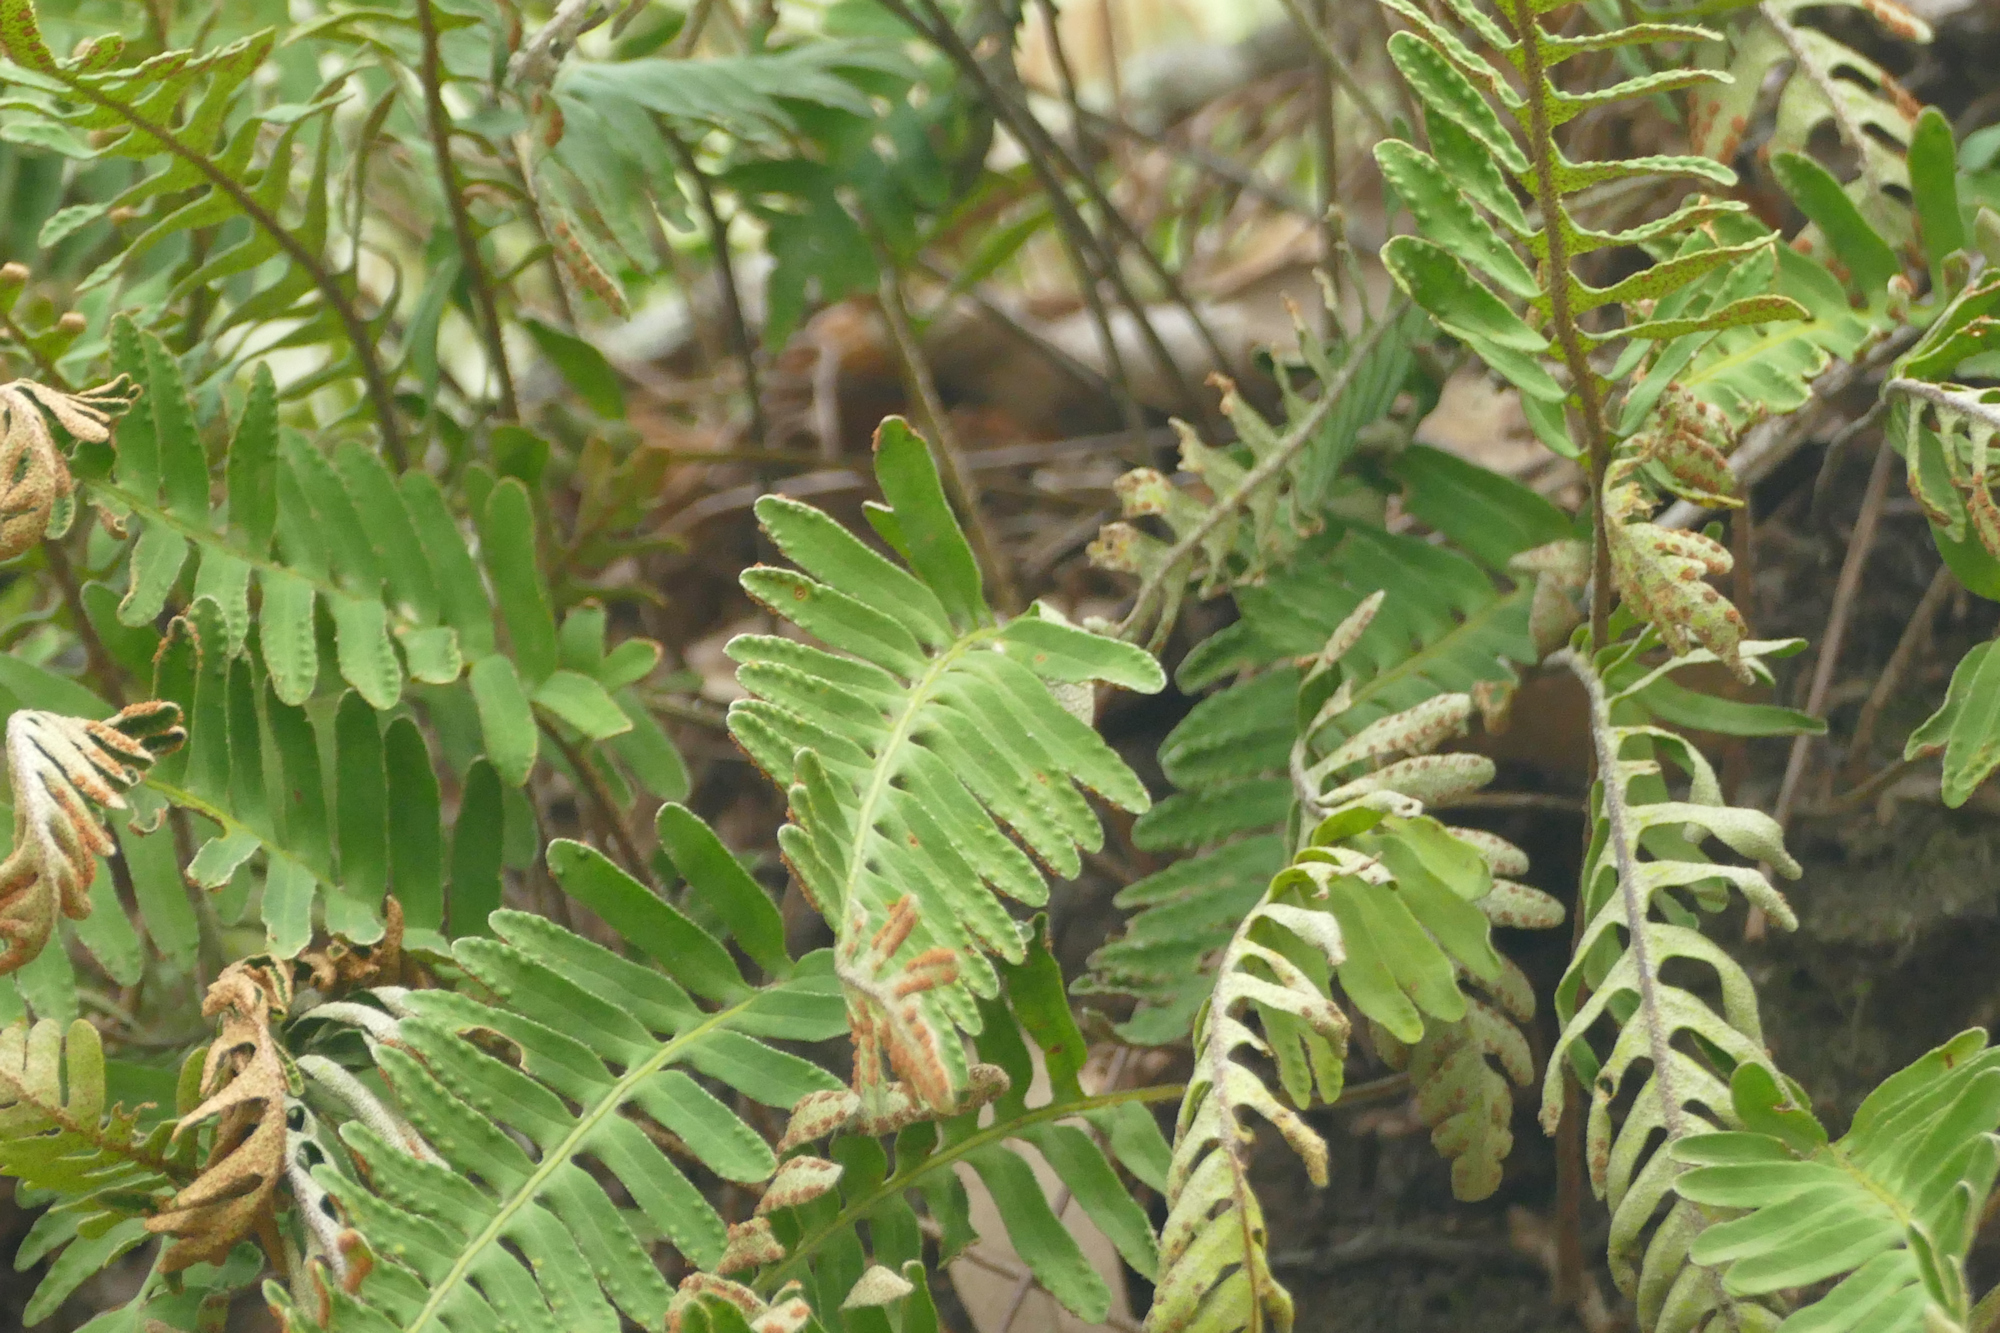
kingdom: Plantae
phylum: Tracheophyta
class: Polypodiopsida
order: Polypodiales
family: Polypodiaceae
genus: Pleopeltis
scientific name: Pleopeltis michauxiana
